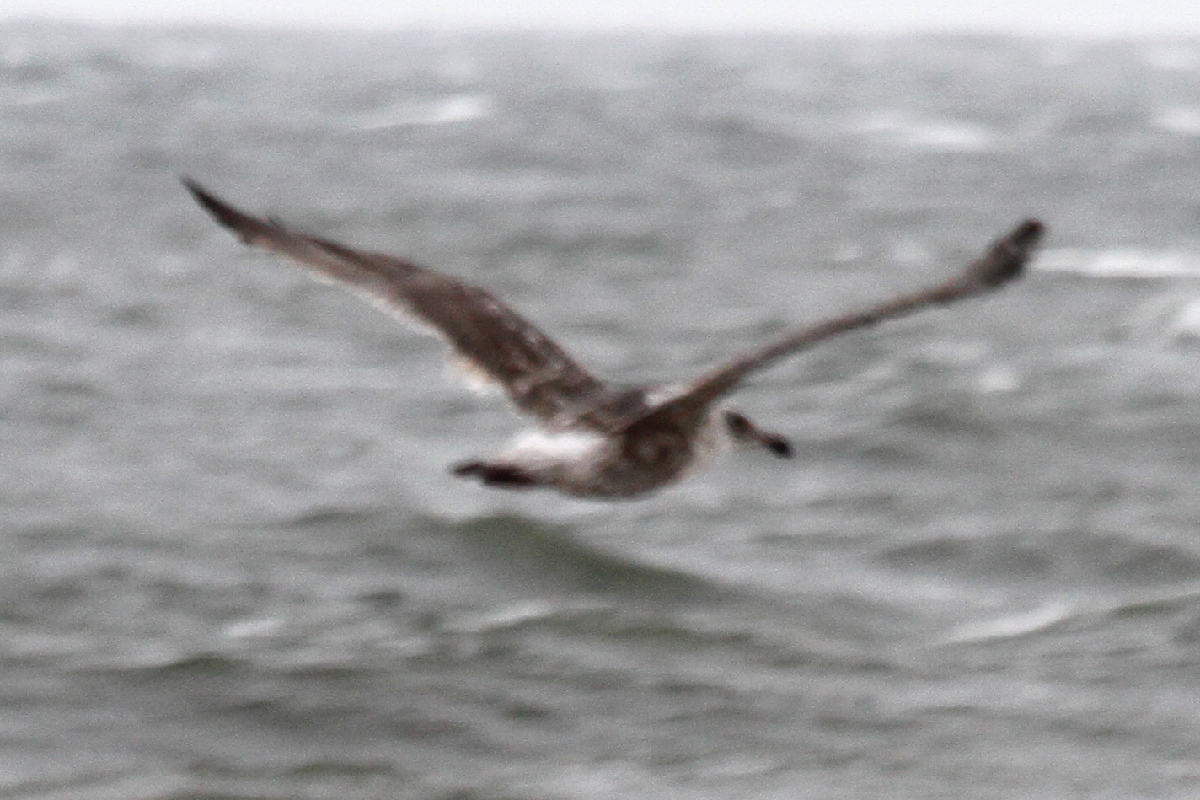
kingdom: Animalia
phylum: Chordata
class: Aves
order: Charadriiformes
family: Laridae
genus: Larus
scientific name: Larus schistisagus
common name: Slaty-backed gull
